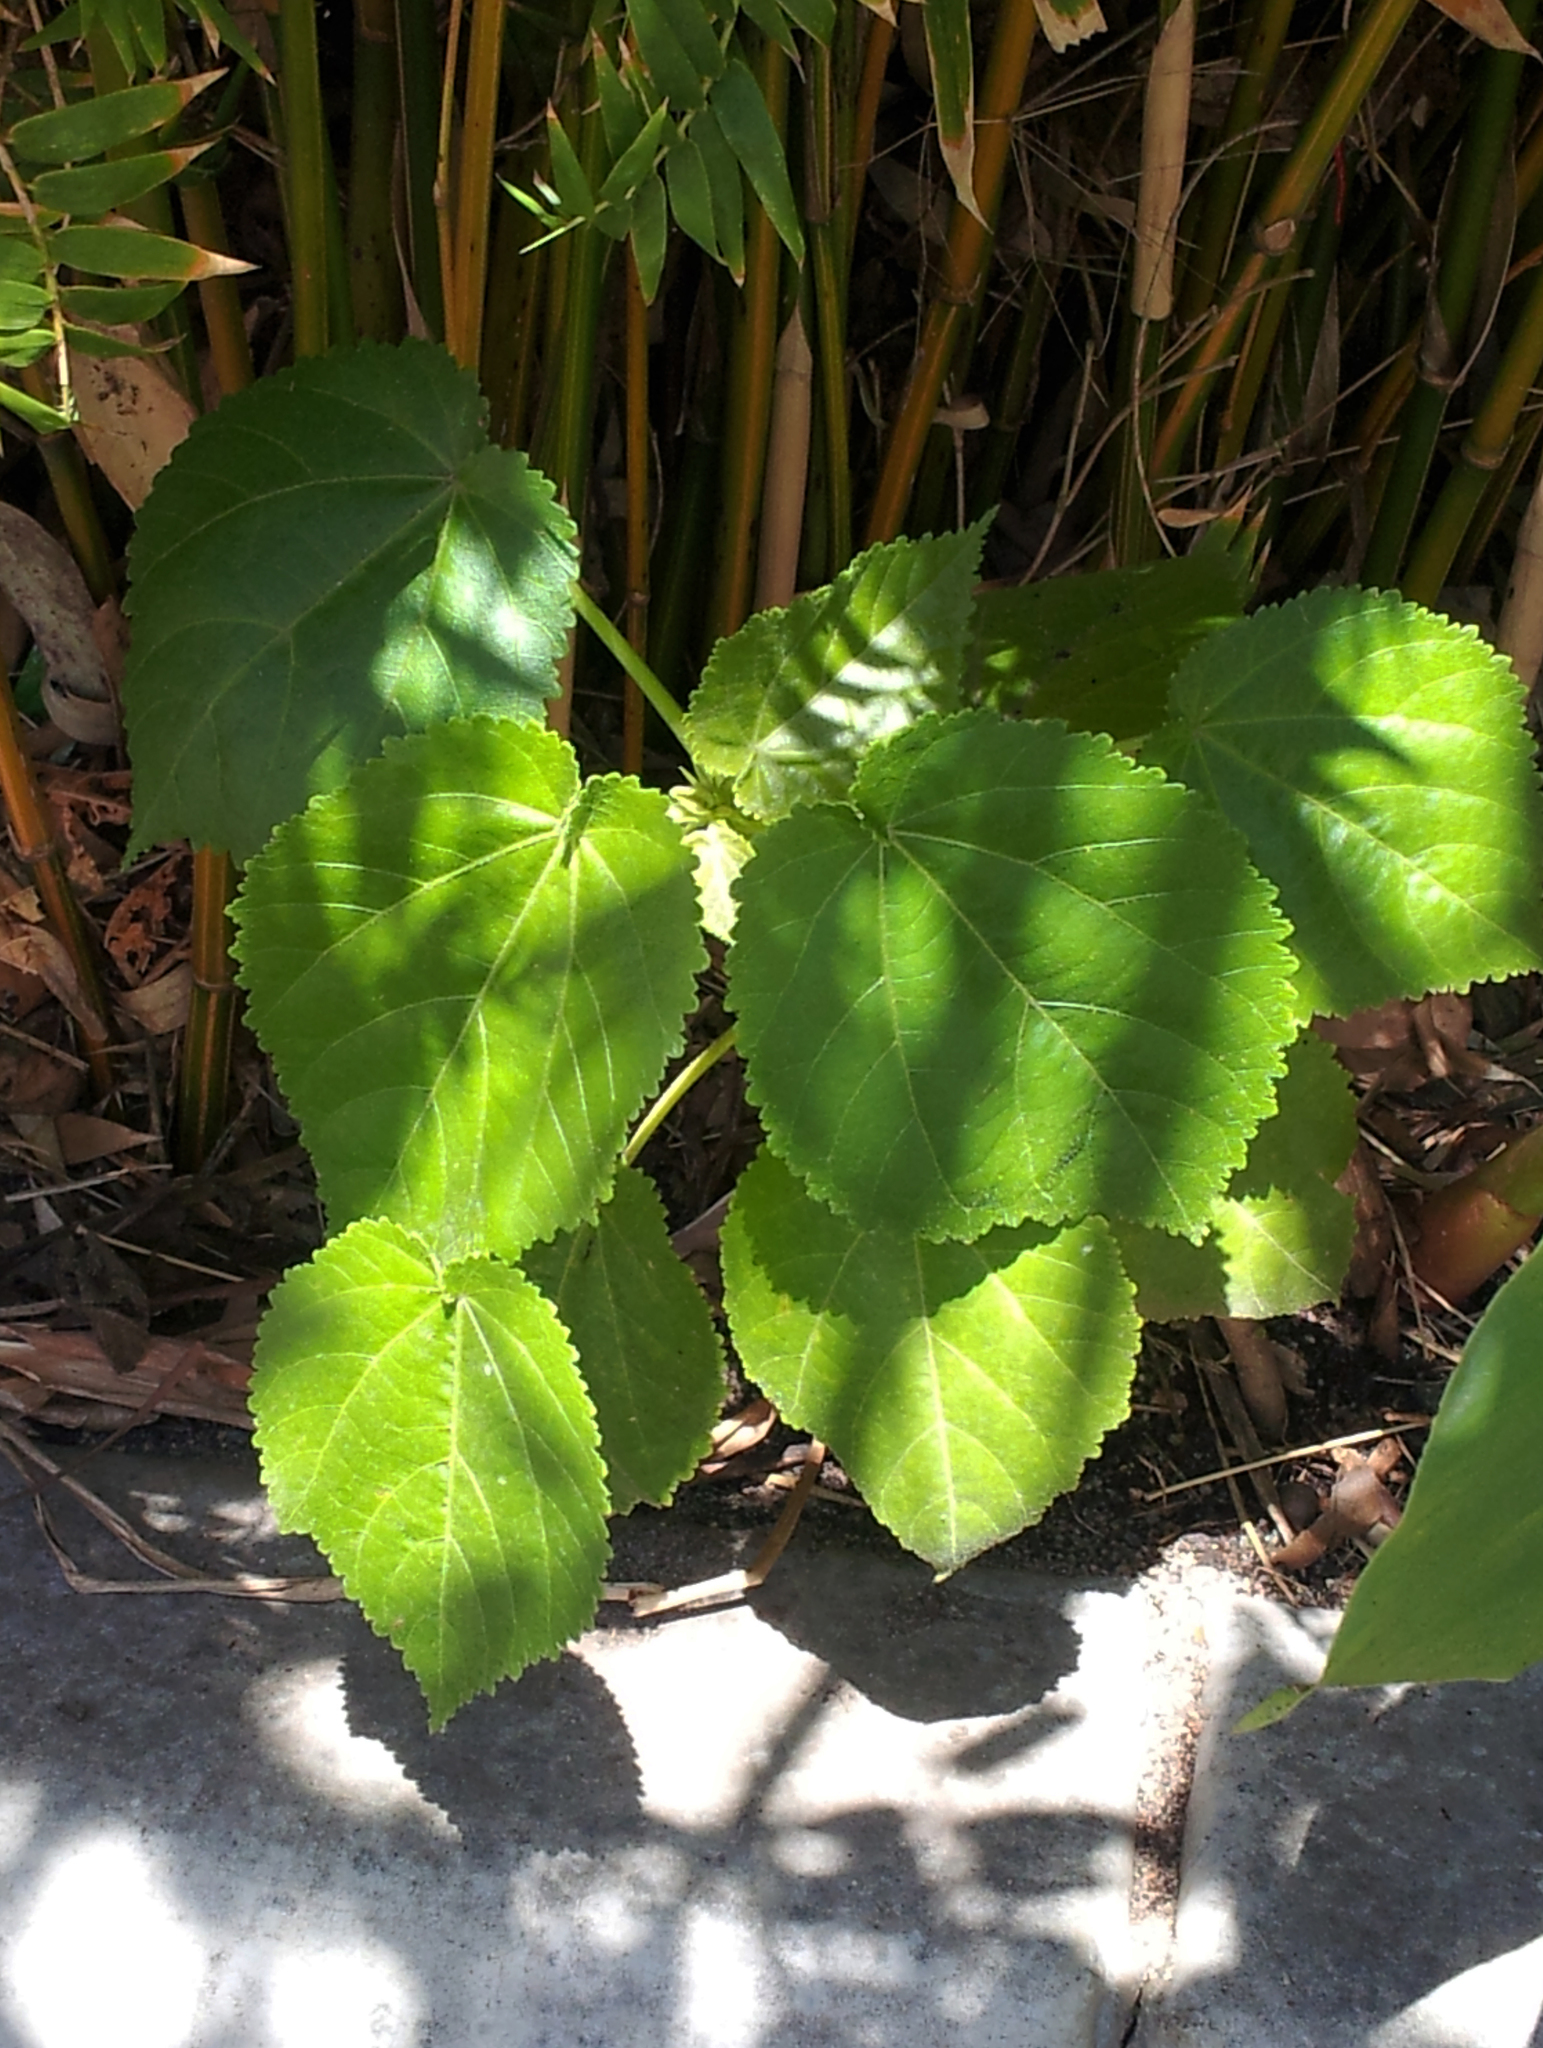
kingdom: Plantae
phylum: Tracheophyta
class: Magnoliopsida
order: Malvales
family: Malvaceae
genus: Entelea
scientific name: Entelea arborescens
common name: New zealand-mulberry
